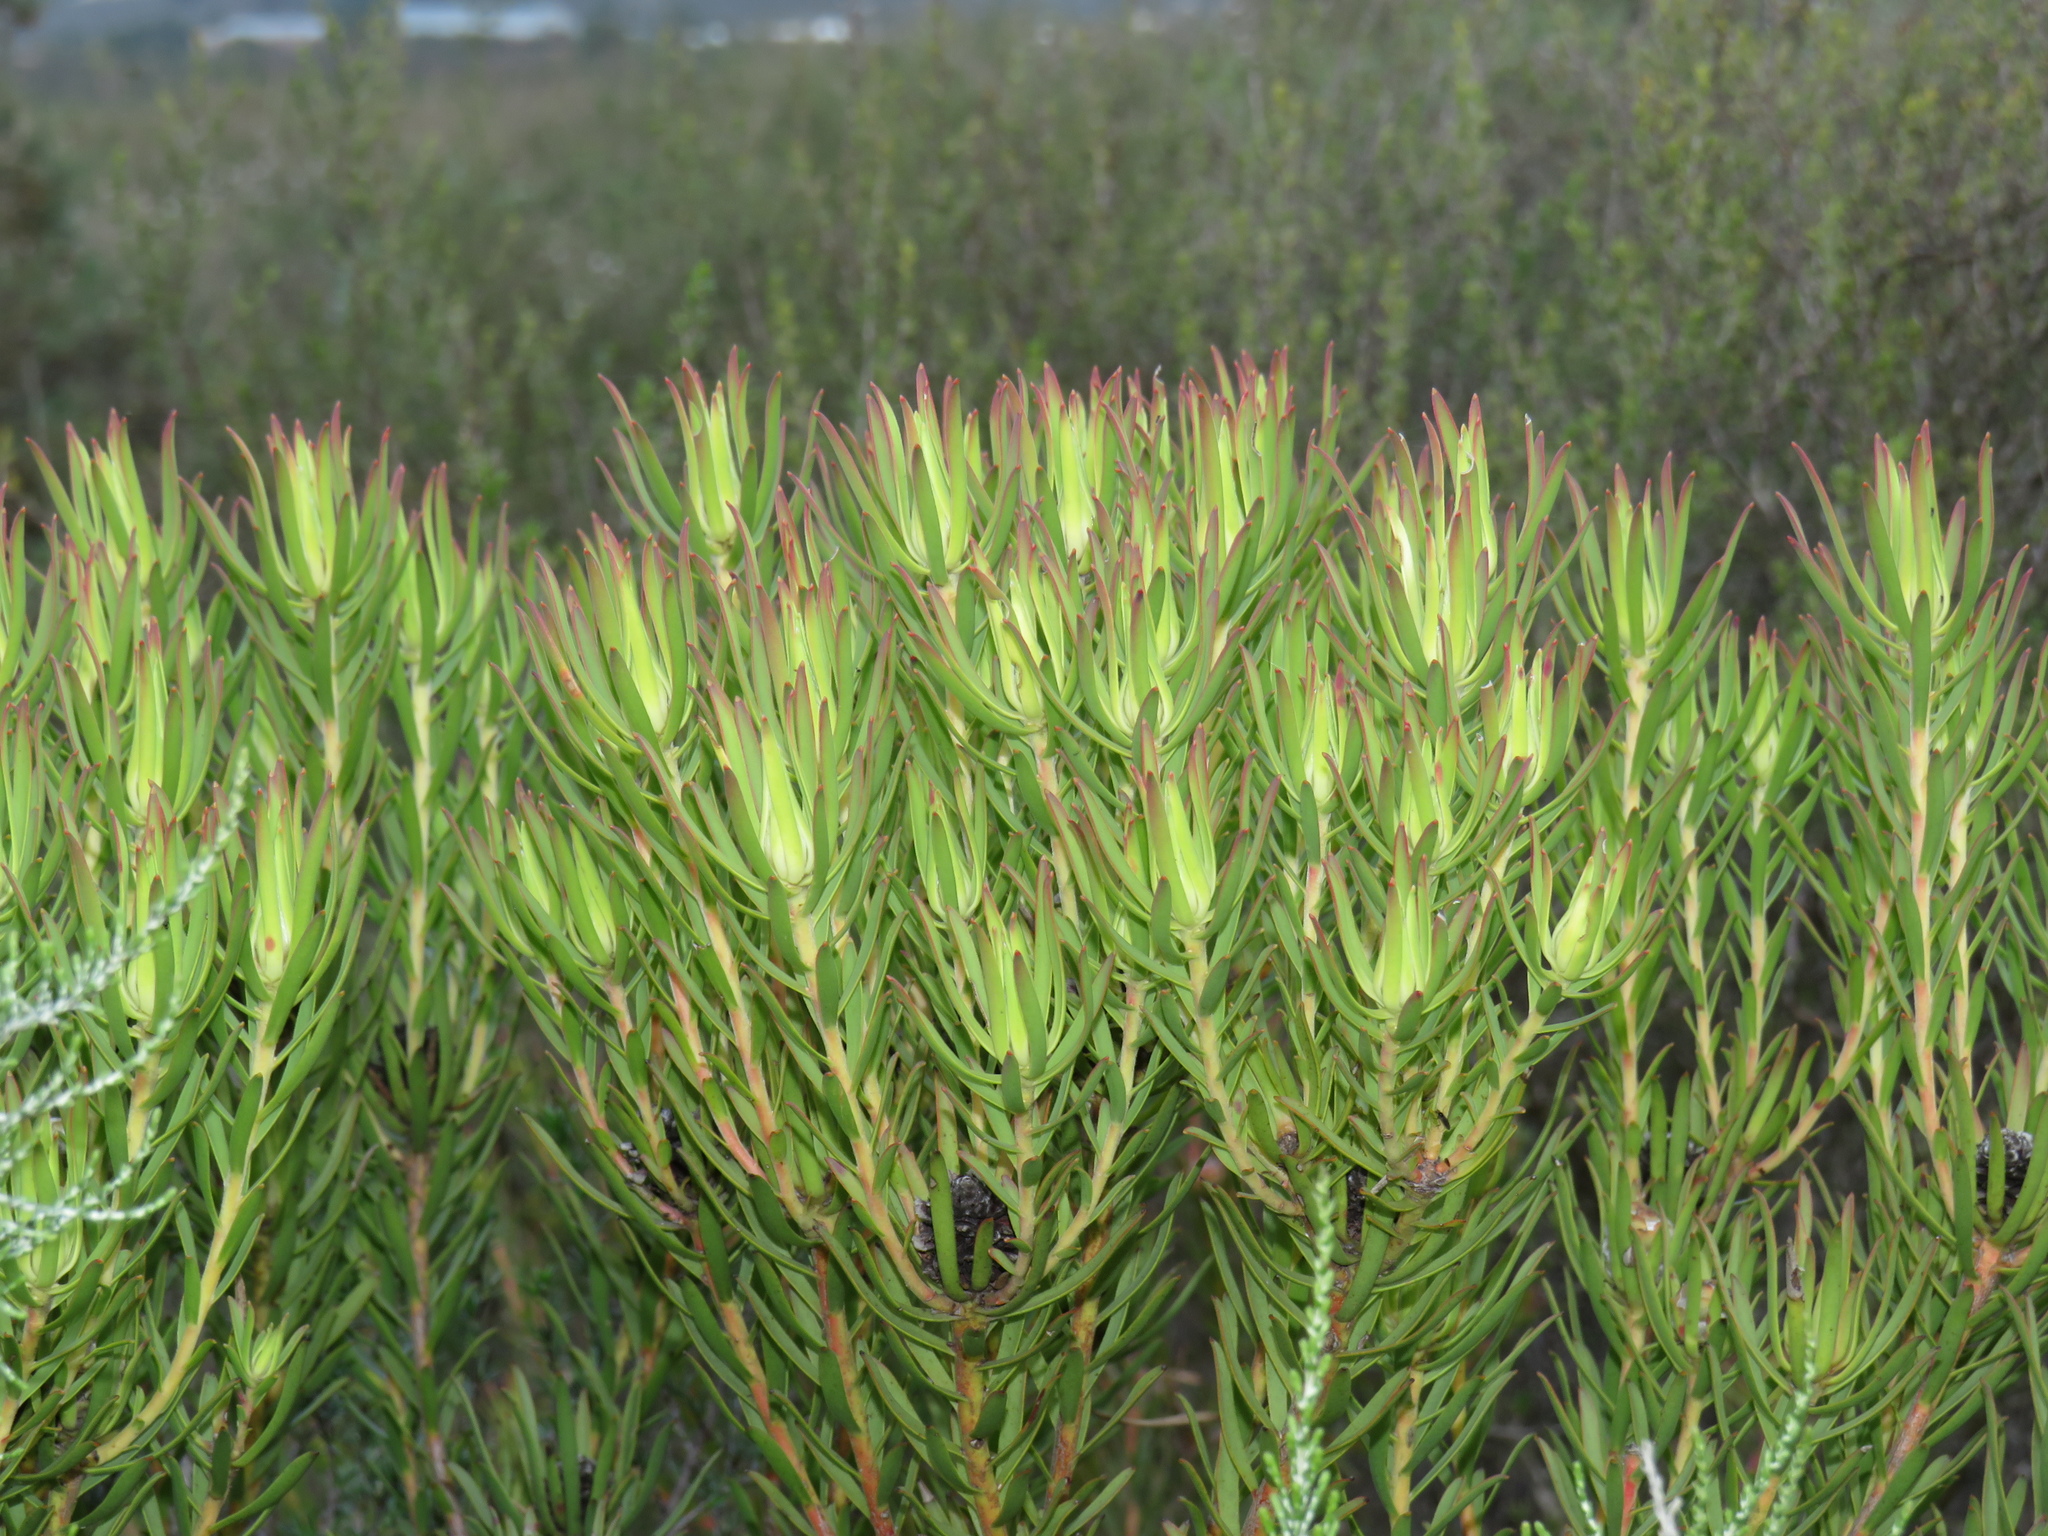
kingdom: Plantae
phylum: Tracheophyta
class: Magnoliopsida
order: Proteales
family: Proteaceae
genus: Leucadendron
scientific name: Leucadendron salignum
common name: Common sunshine conebush
